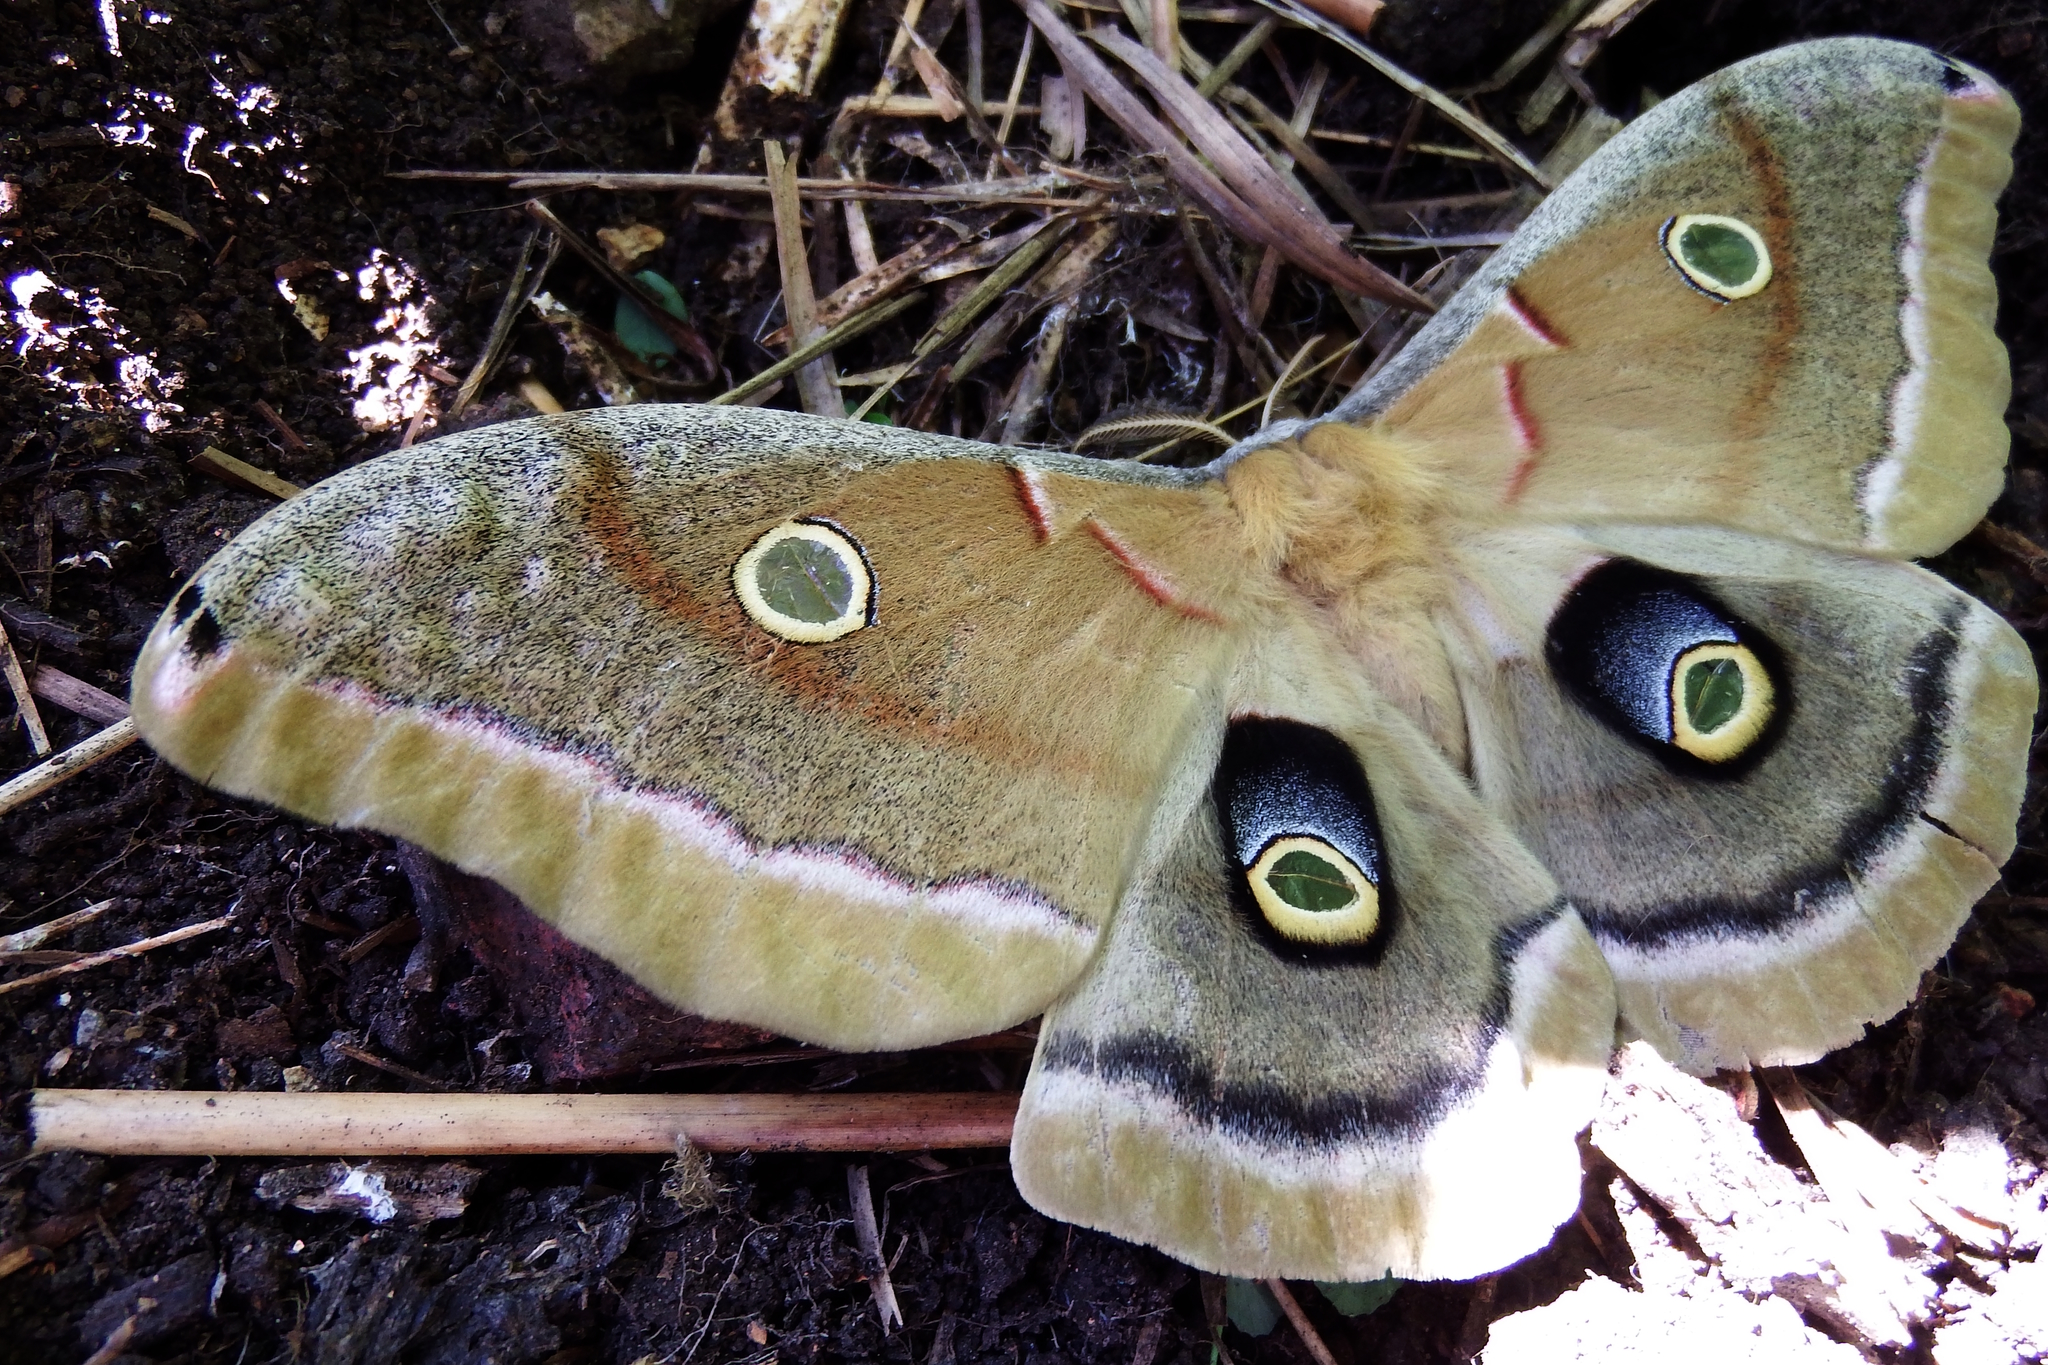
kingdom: Animalia
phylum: Arthropoda
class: Insecta
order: Lepidoptera
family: Saturniidae
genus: Antheraea
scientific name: Antheraea polyphemus
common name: Polyphemus moth
